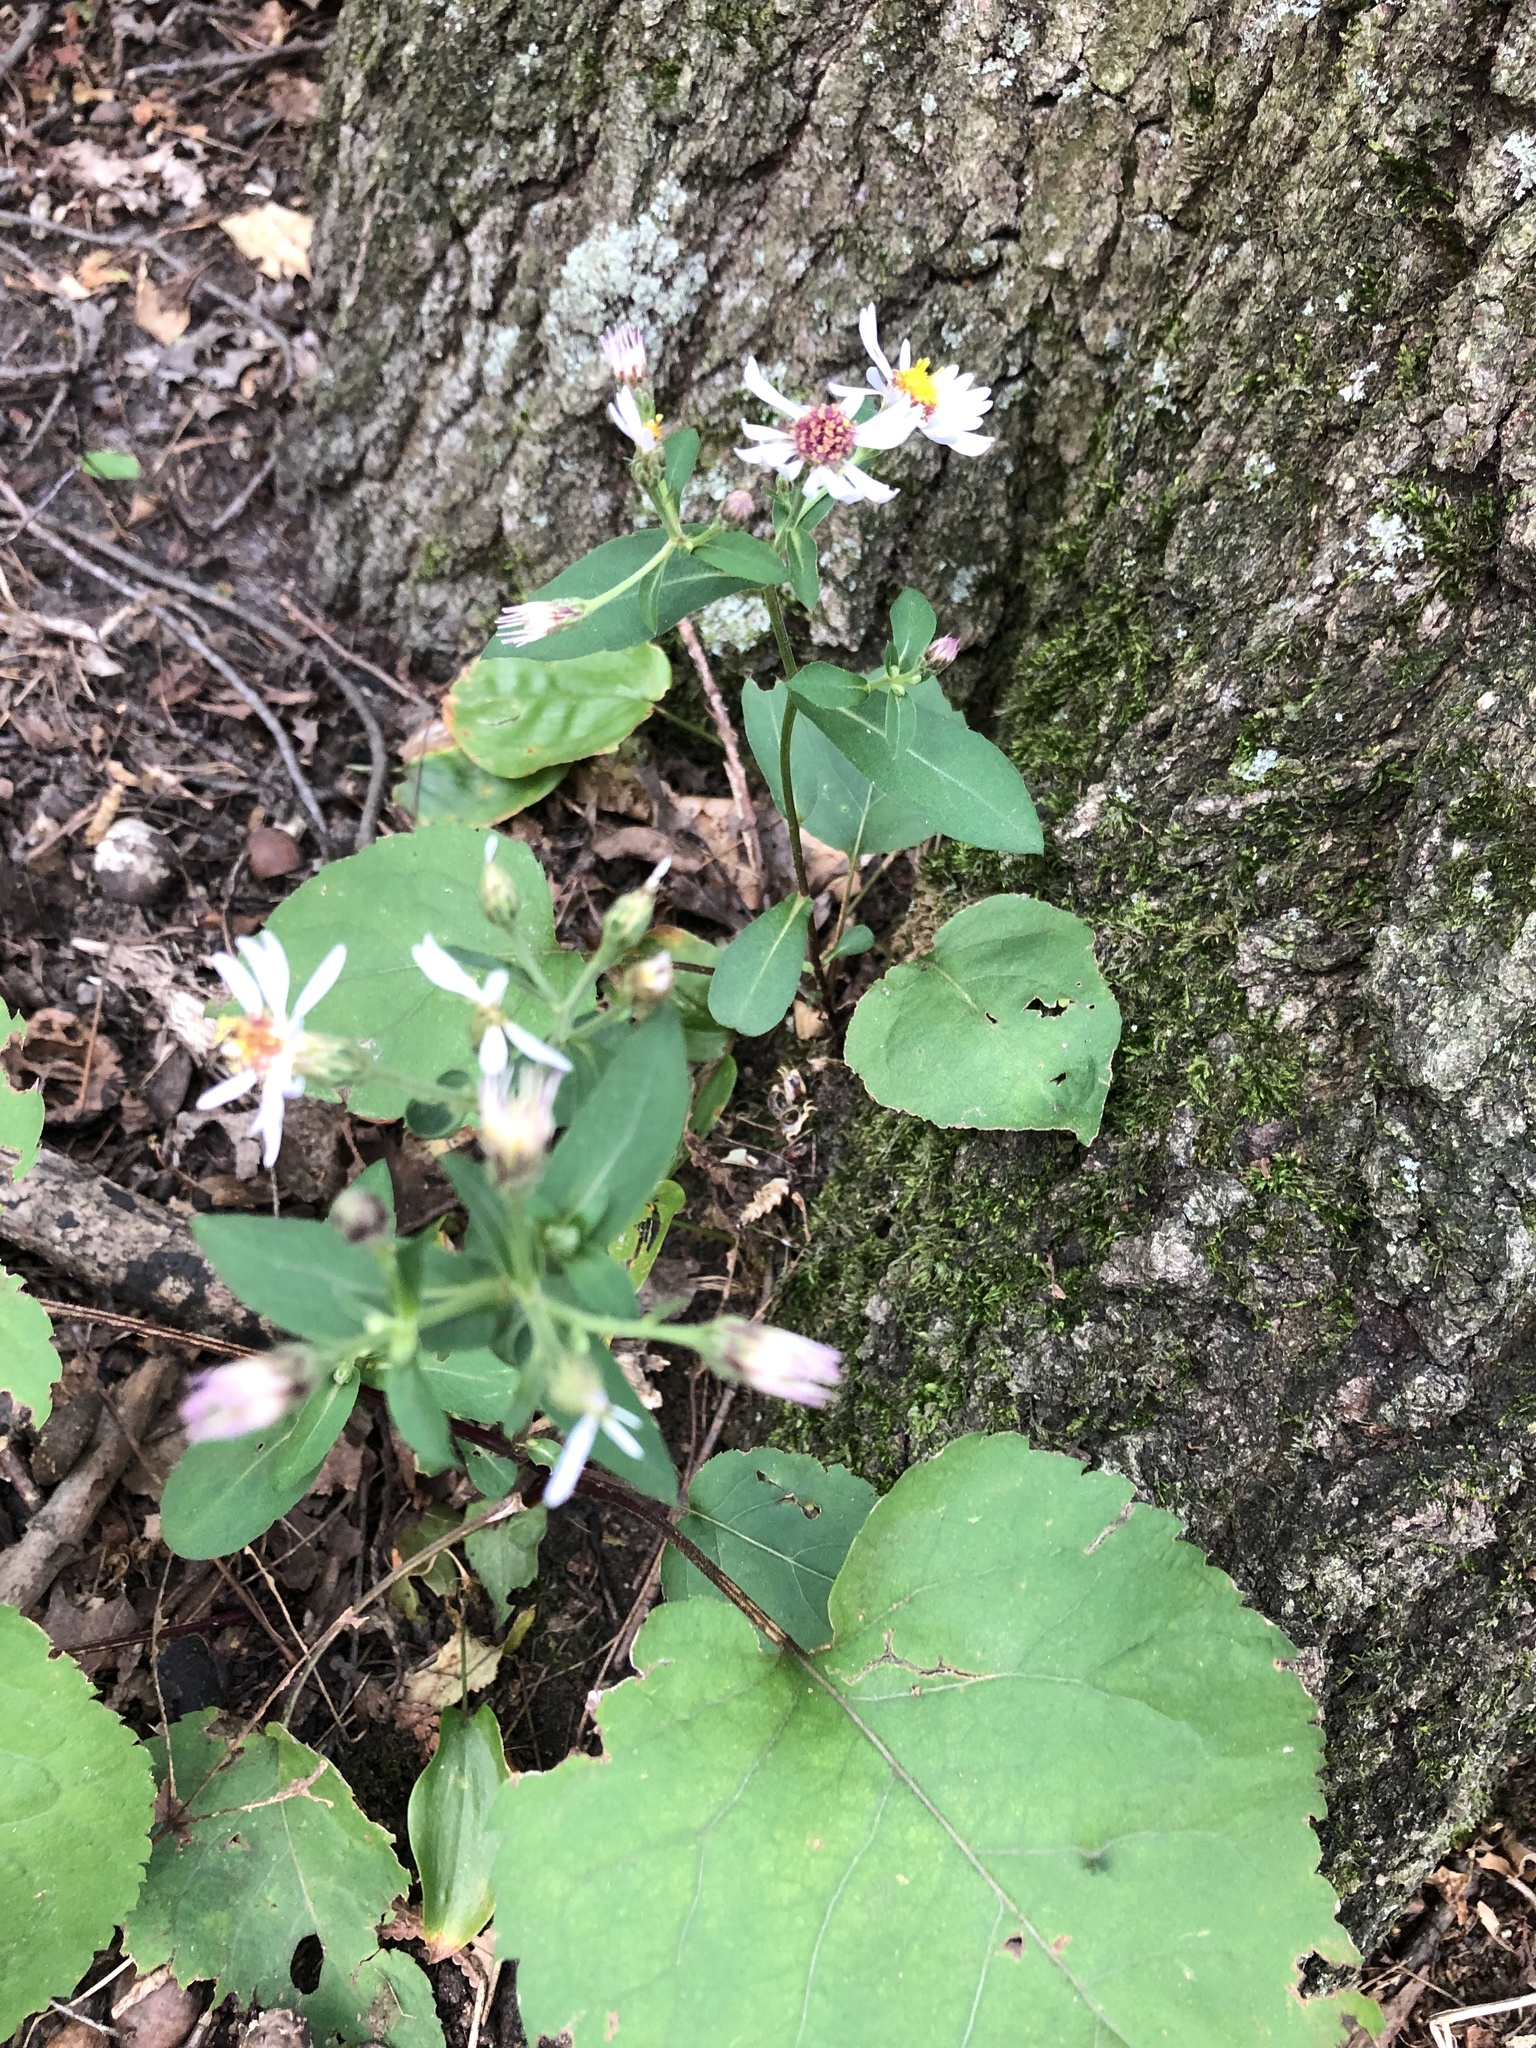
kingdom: Plantae
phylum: Tracheophyta
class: Magnoliopsida
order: Asterales
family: Asteraceae
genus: Eurybia
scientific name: Eurybia macrophylla
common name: Big-leaved aster
